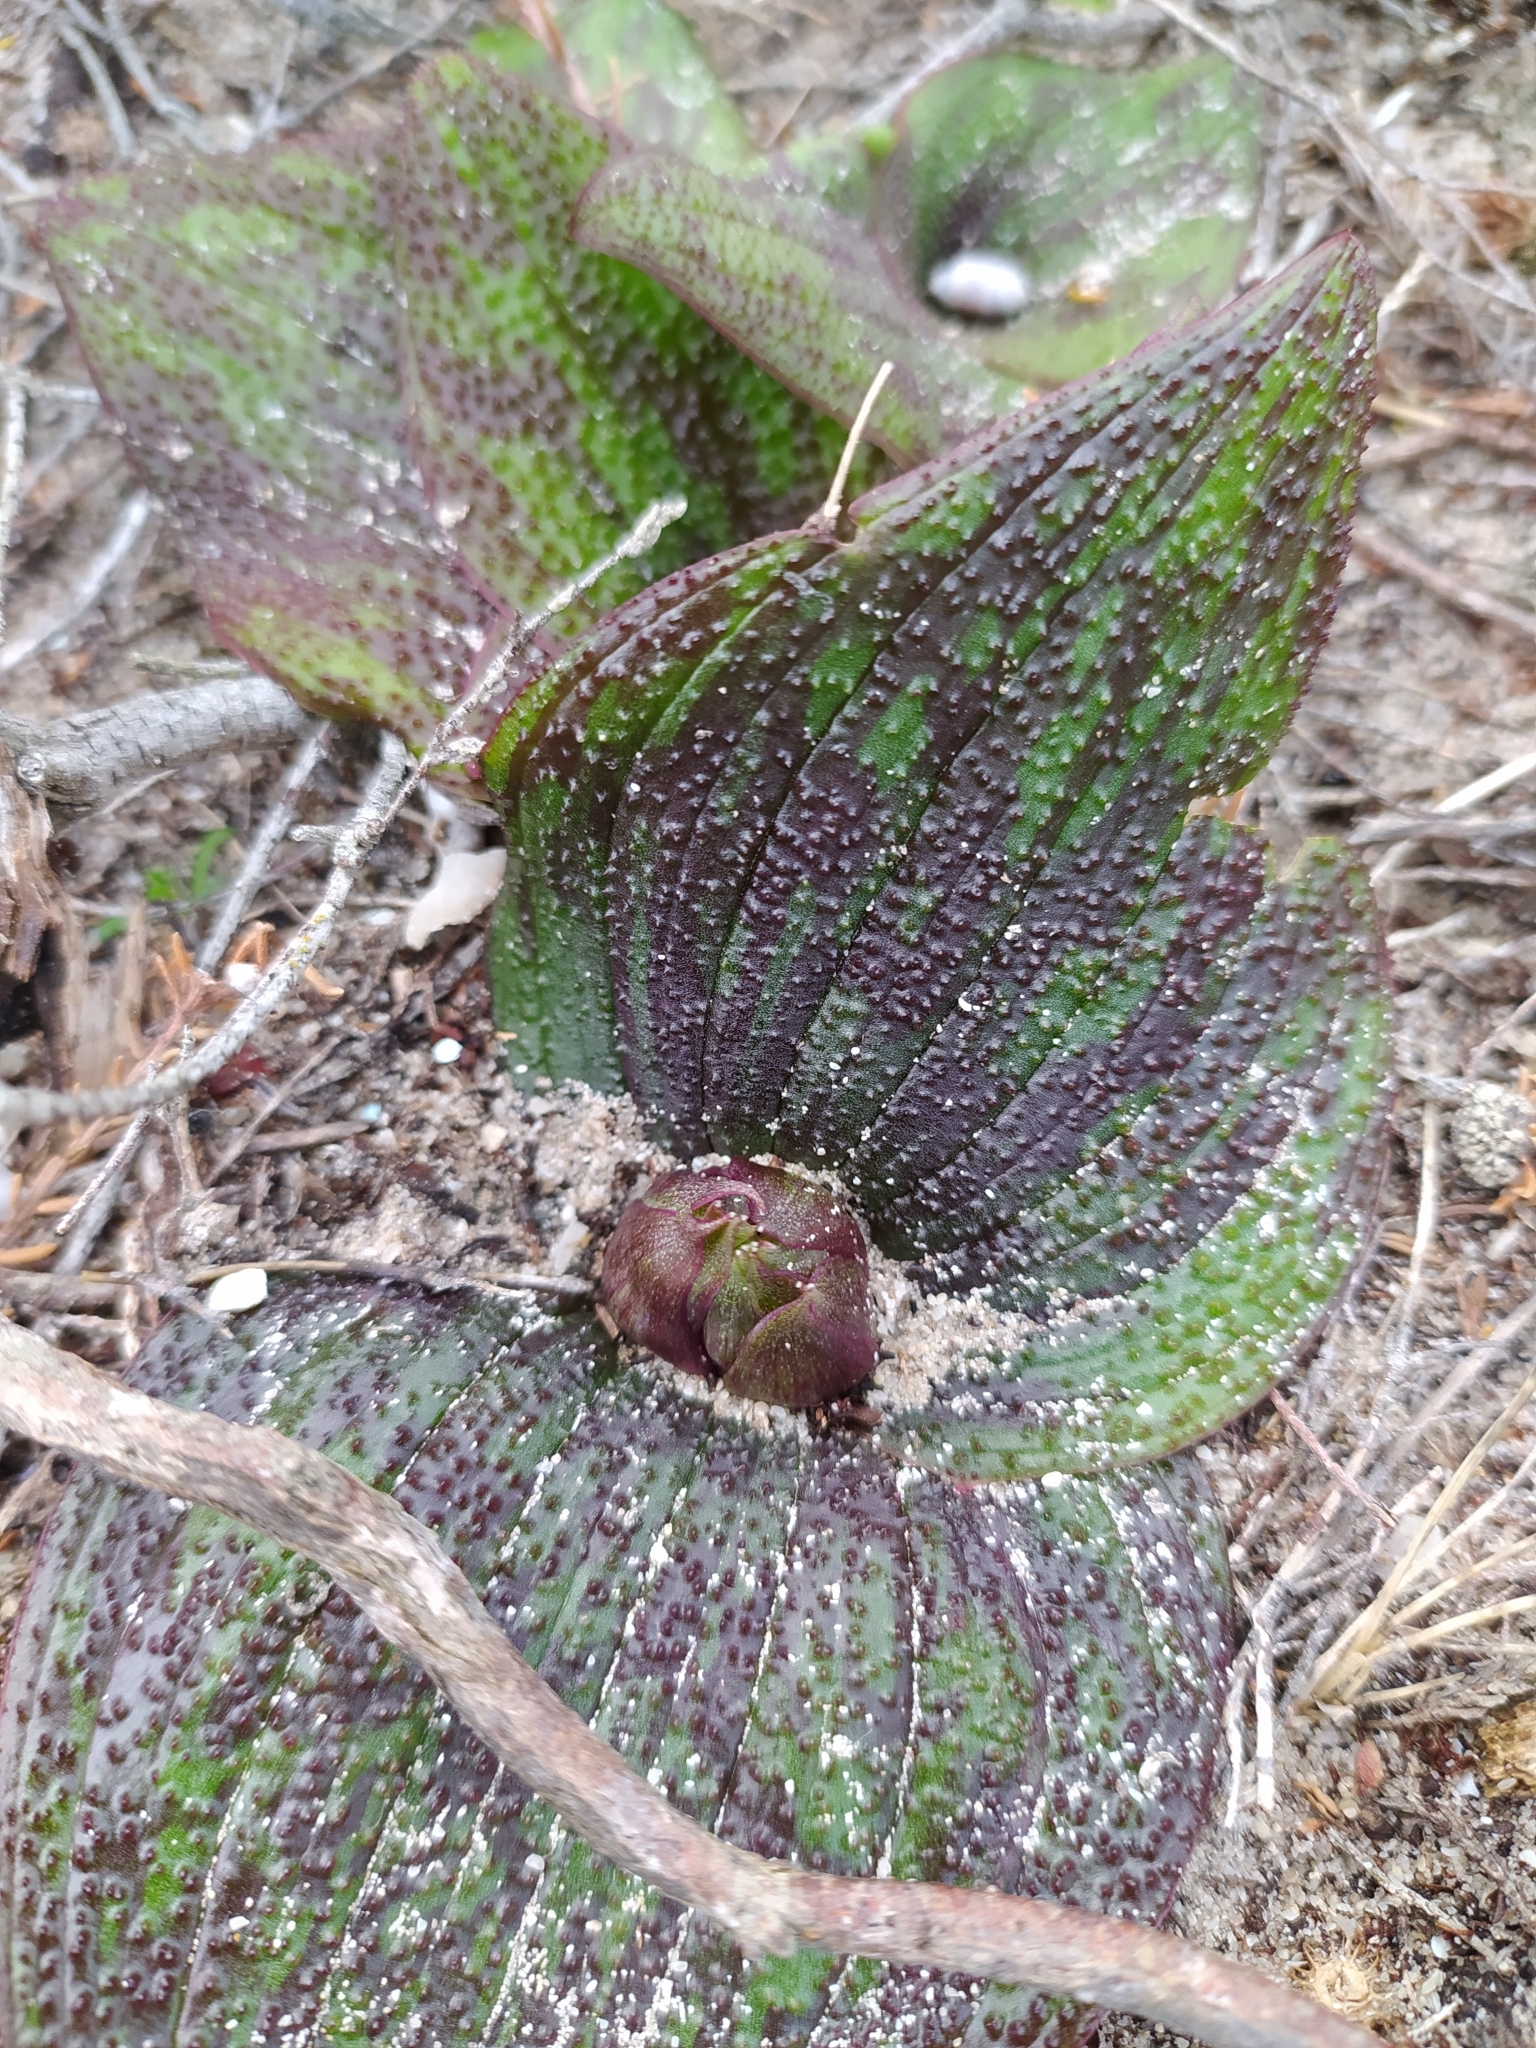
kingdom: Plantae
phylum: Tracheophyta
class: Liliopsida
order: Asparagales
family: Asparagaceae
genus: Massonia
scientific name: Massonia longipes
